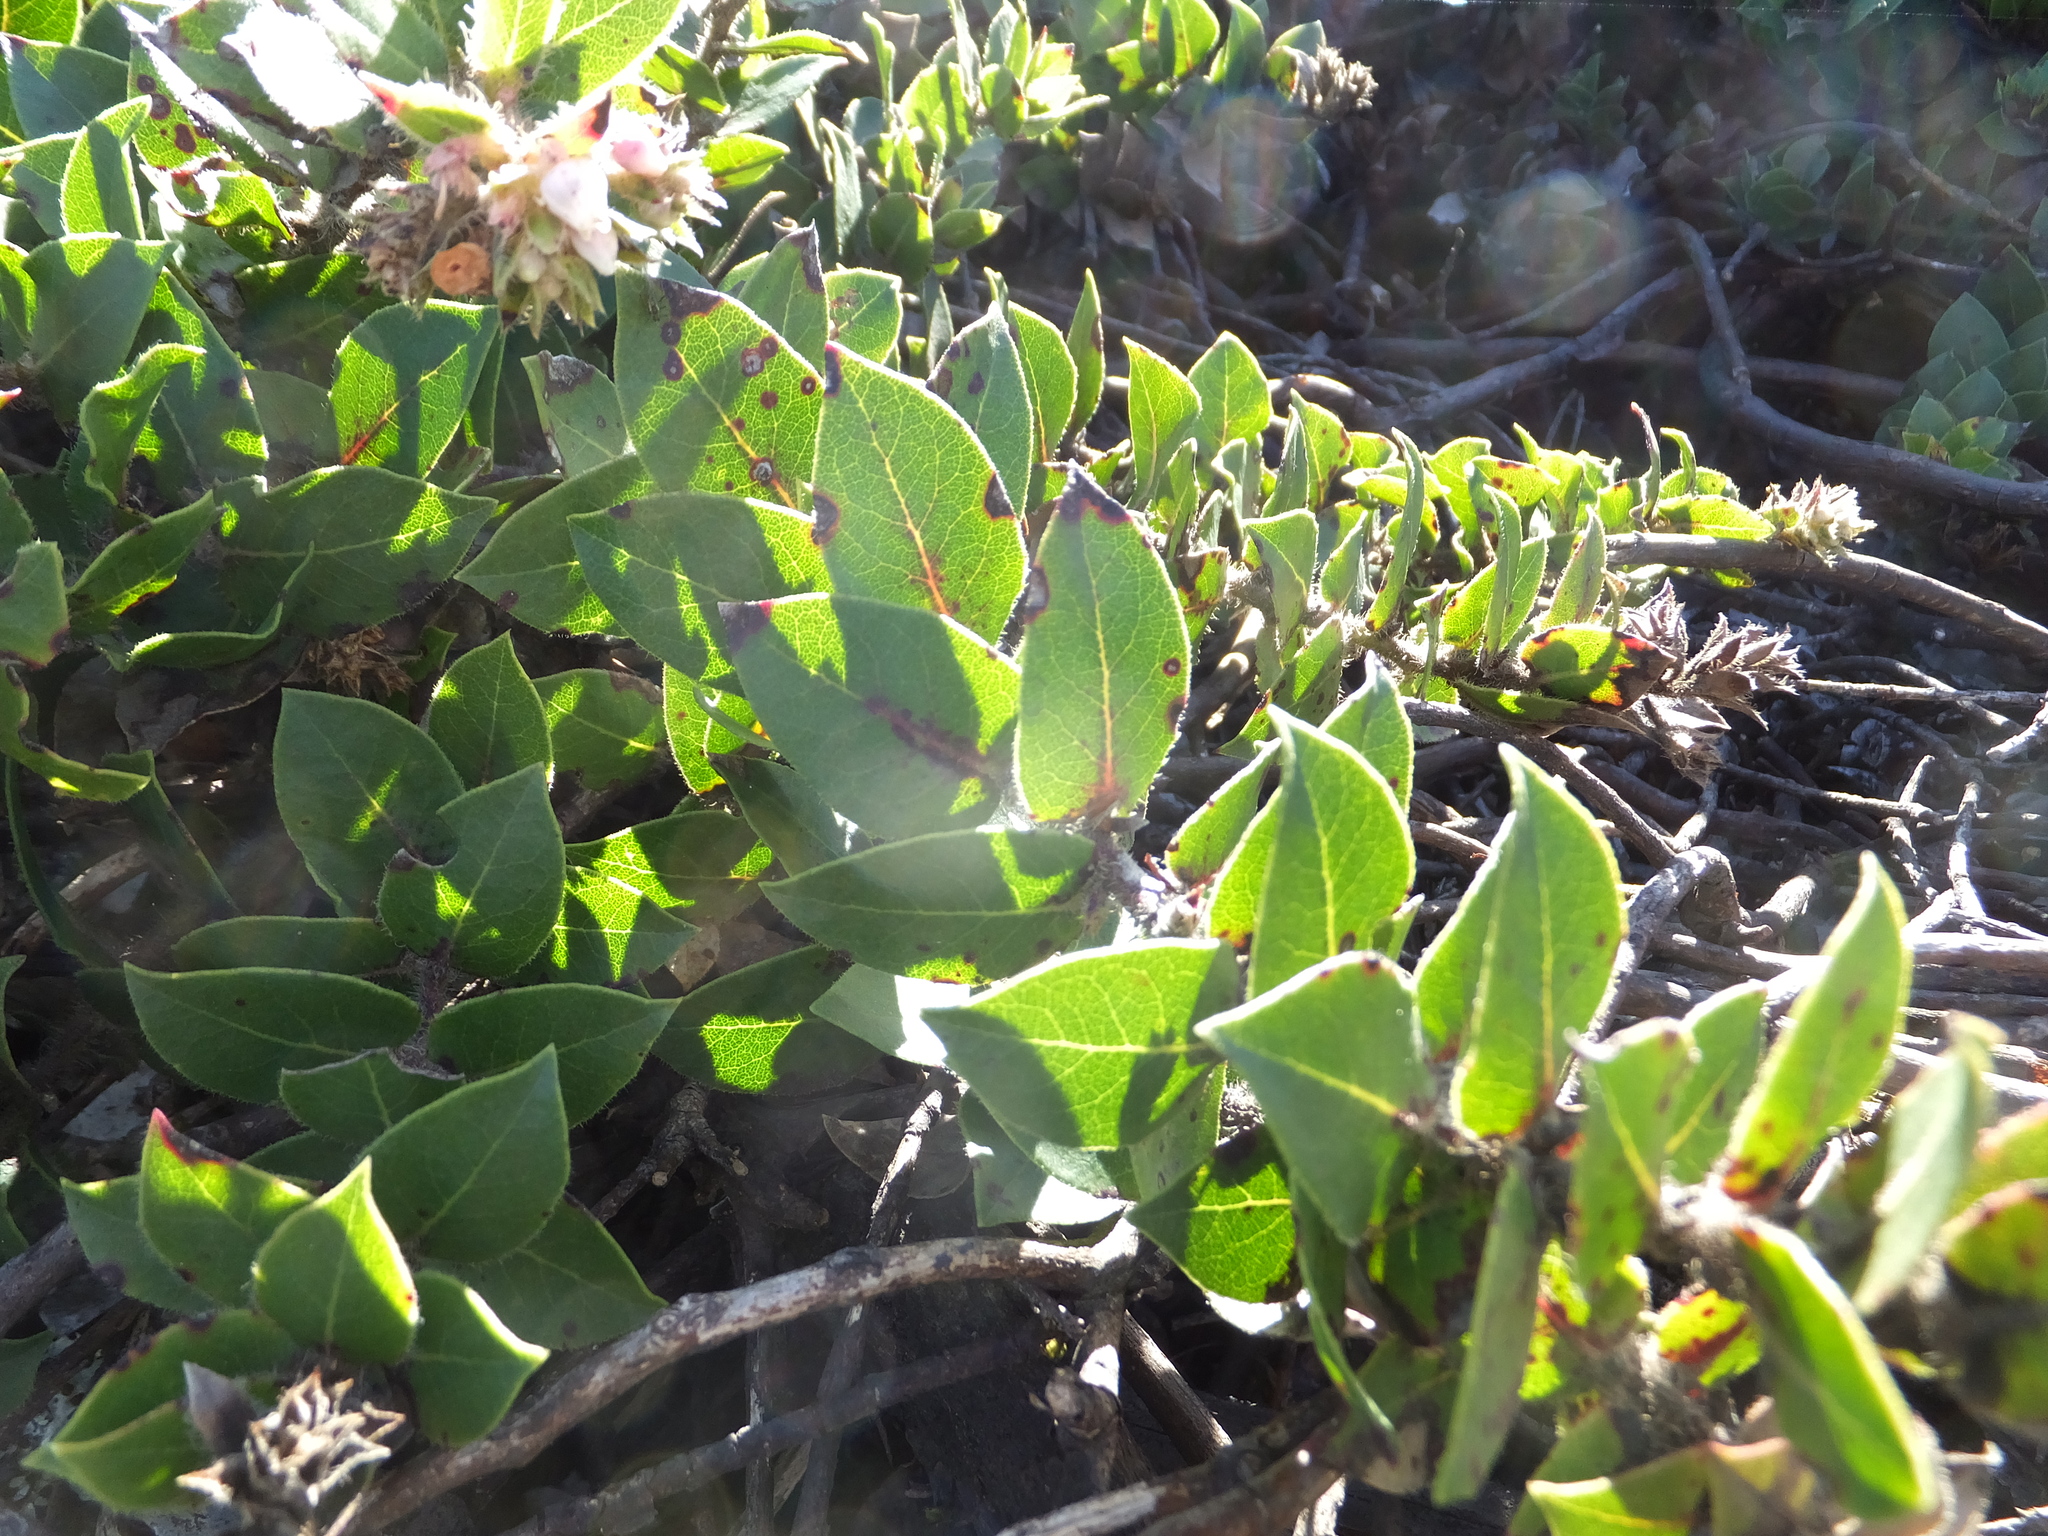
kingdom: Plantae
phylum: Tracheophyta
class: Magnoliopsida
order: Ericales
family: Ericaceae
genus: Arctostaphylos
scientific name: Arctostaphylos imbricata
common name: San bruno mountain manzanita
